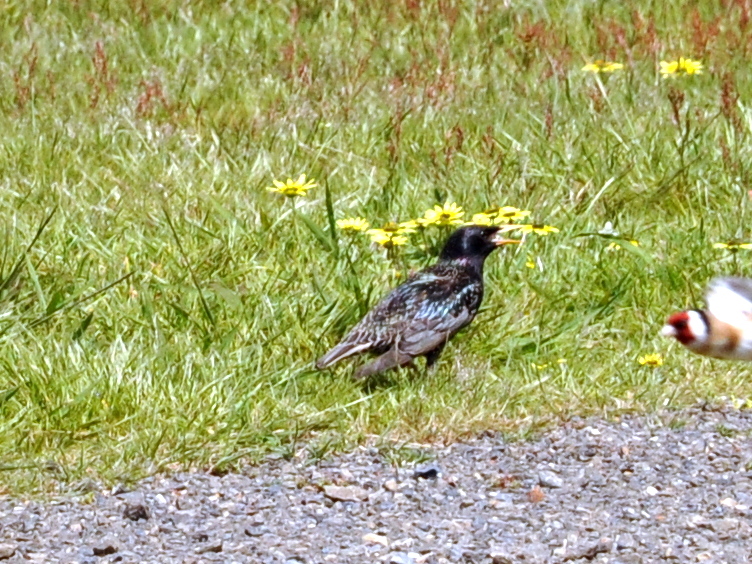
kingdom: Animalia
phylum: Chordata
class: Aves
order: Passeriformes
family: Sturnidae
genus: Sturnus
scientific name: Sturnus vulgaris
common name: Common starling
